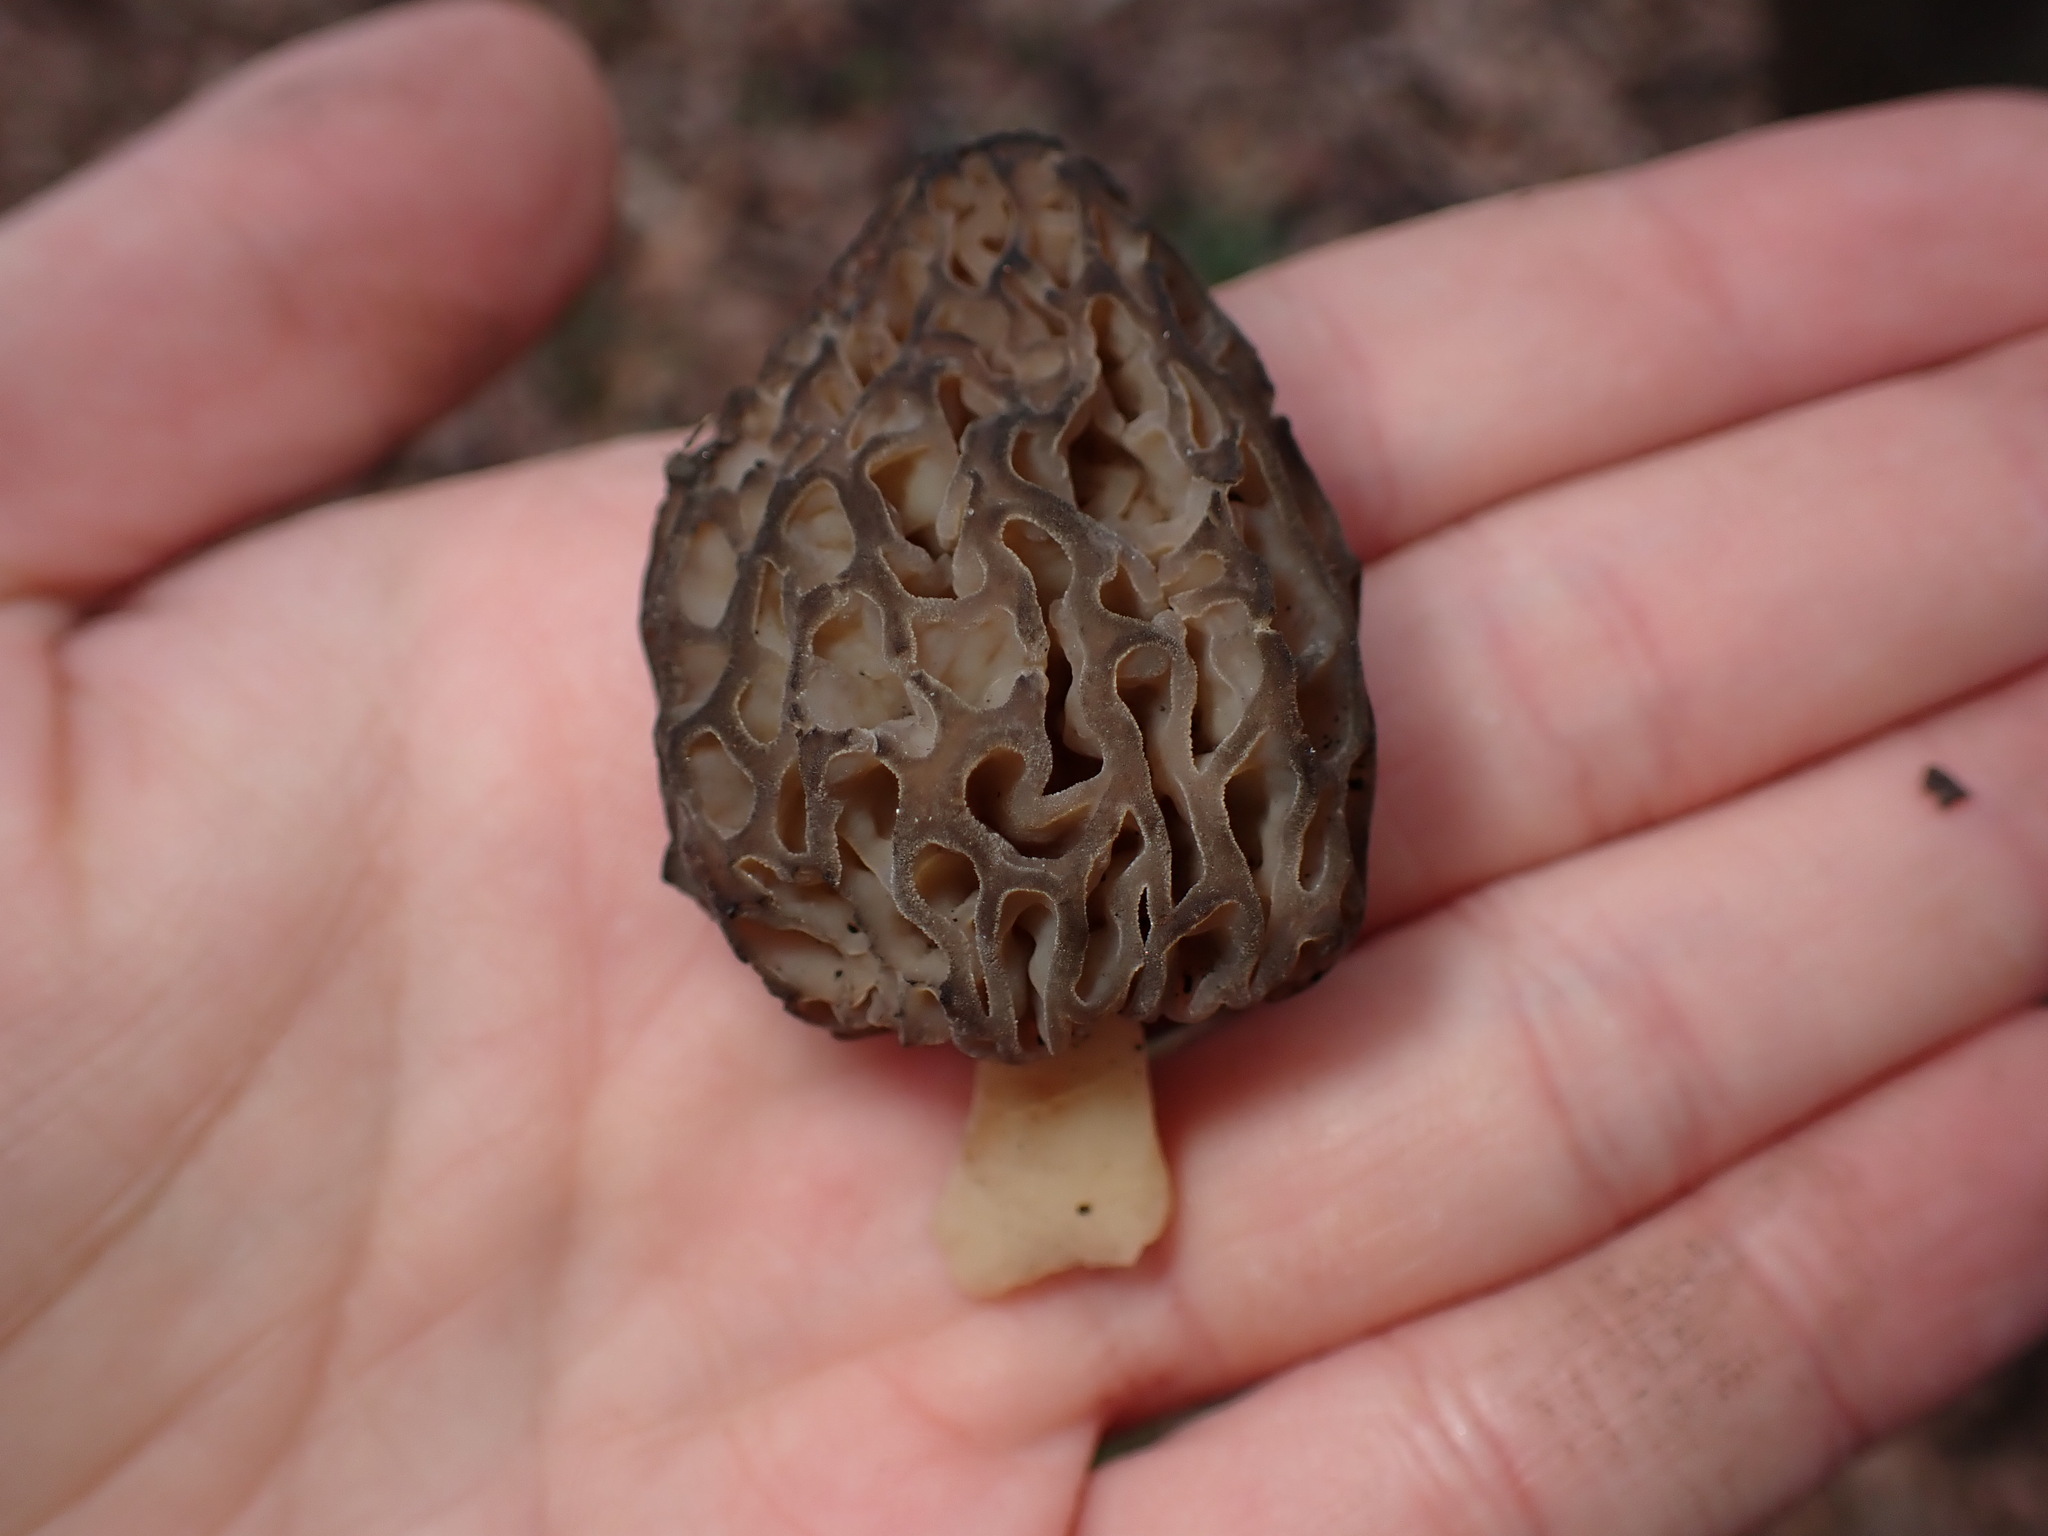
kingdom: Fungi
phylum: Ascomycota
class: Pezizomycetes
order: Pezizales
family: Morchellaceae
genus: Morchella
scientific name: Morchella angusticeps
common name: Black morel
